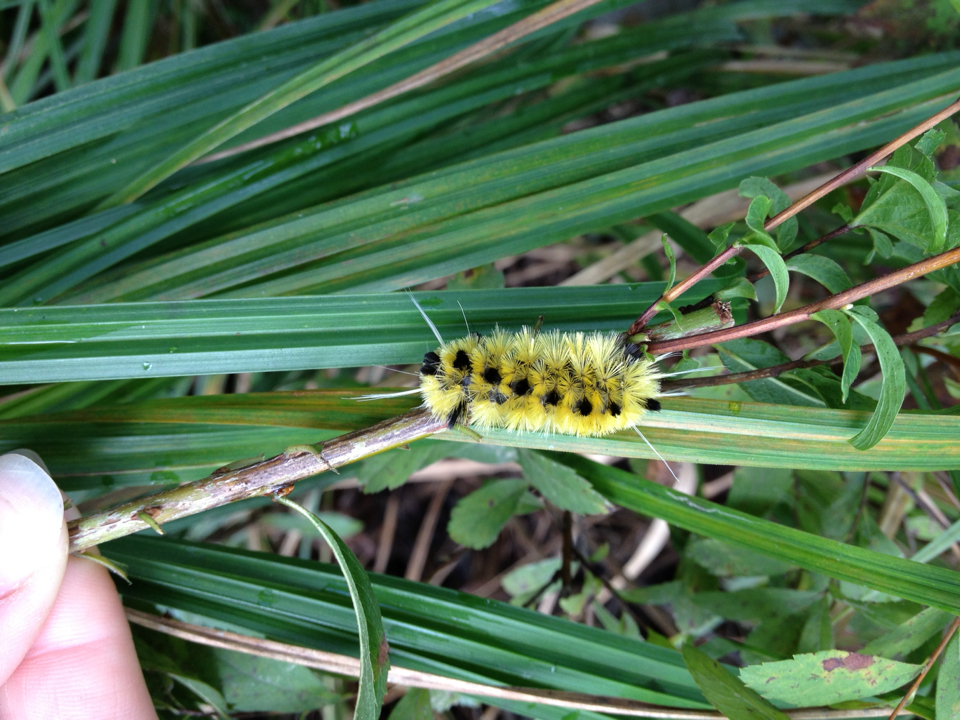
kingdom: Animalia
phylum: Arthropoda
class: Insecta
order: Lepidoptera
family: Erebidae
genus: Lophocampa
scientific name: Lophocampa maculata
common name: Spotted tussock moth
